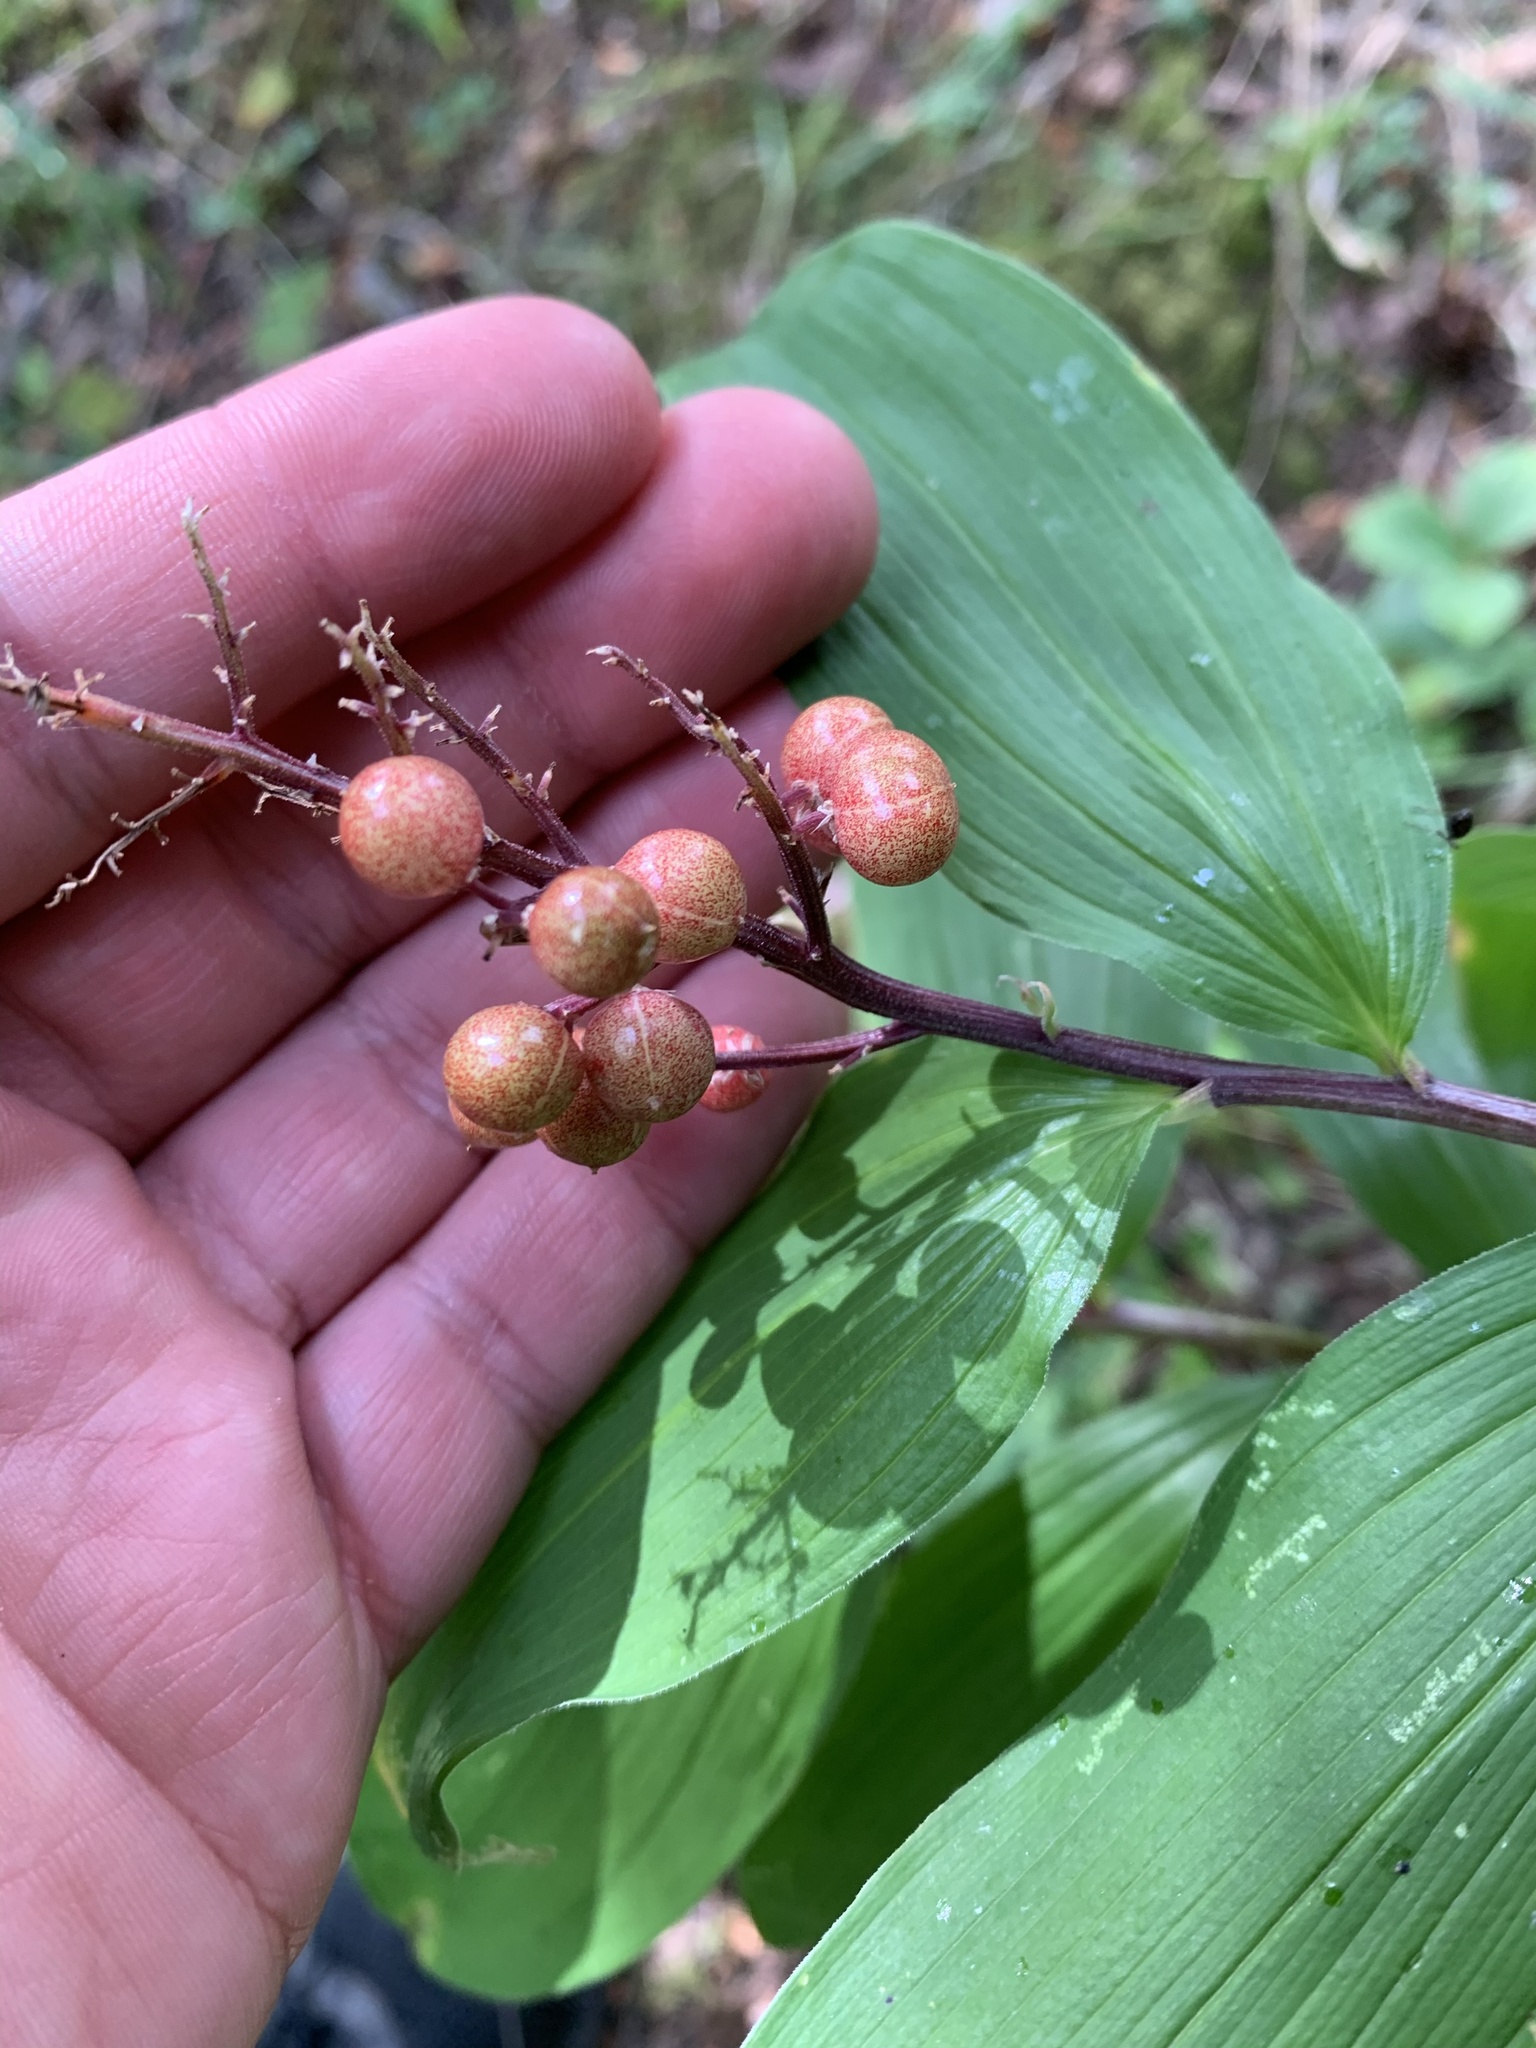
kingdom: Plantae
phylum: Tracheophyta
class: Liliopsida
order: Asparagales
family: Asparagaceae
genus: Maianthemum
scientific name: Maianthemum racemosum
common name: False spikenard
